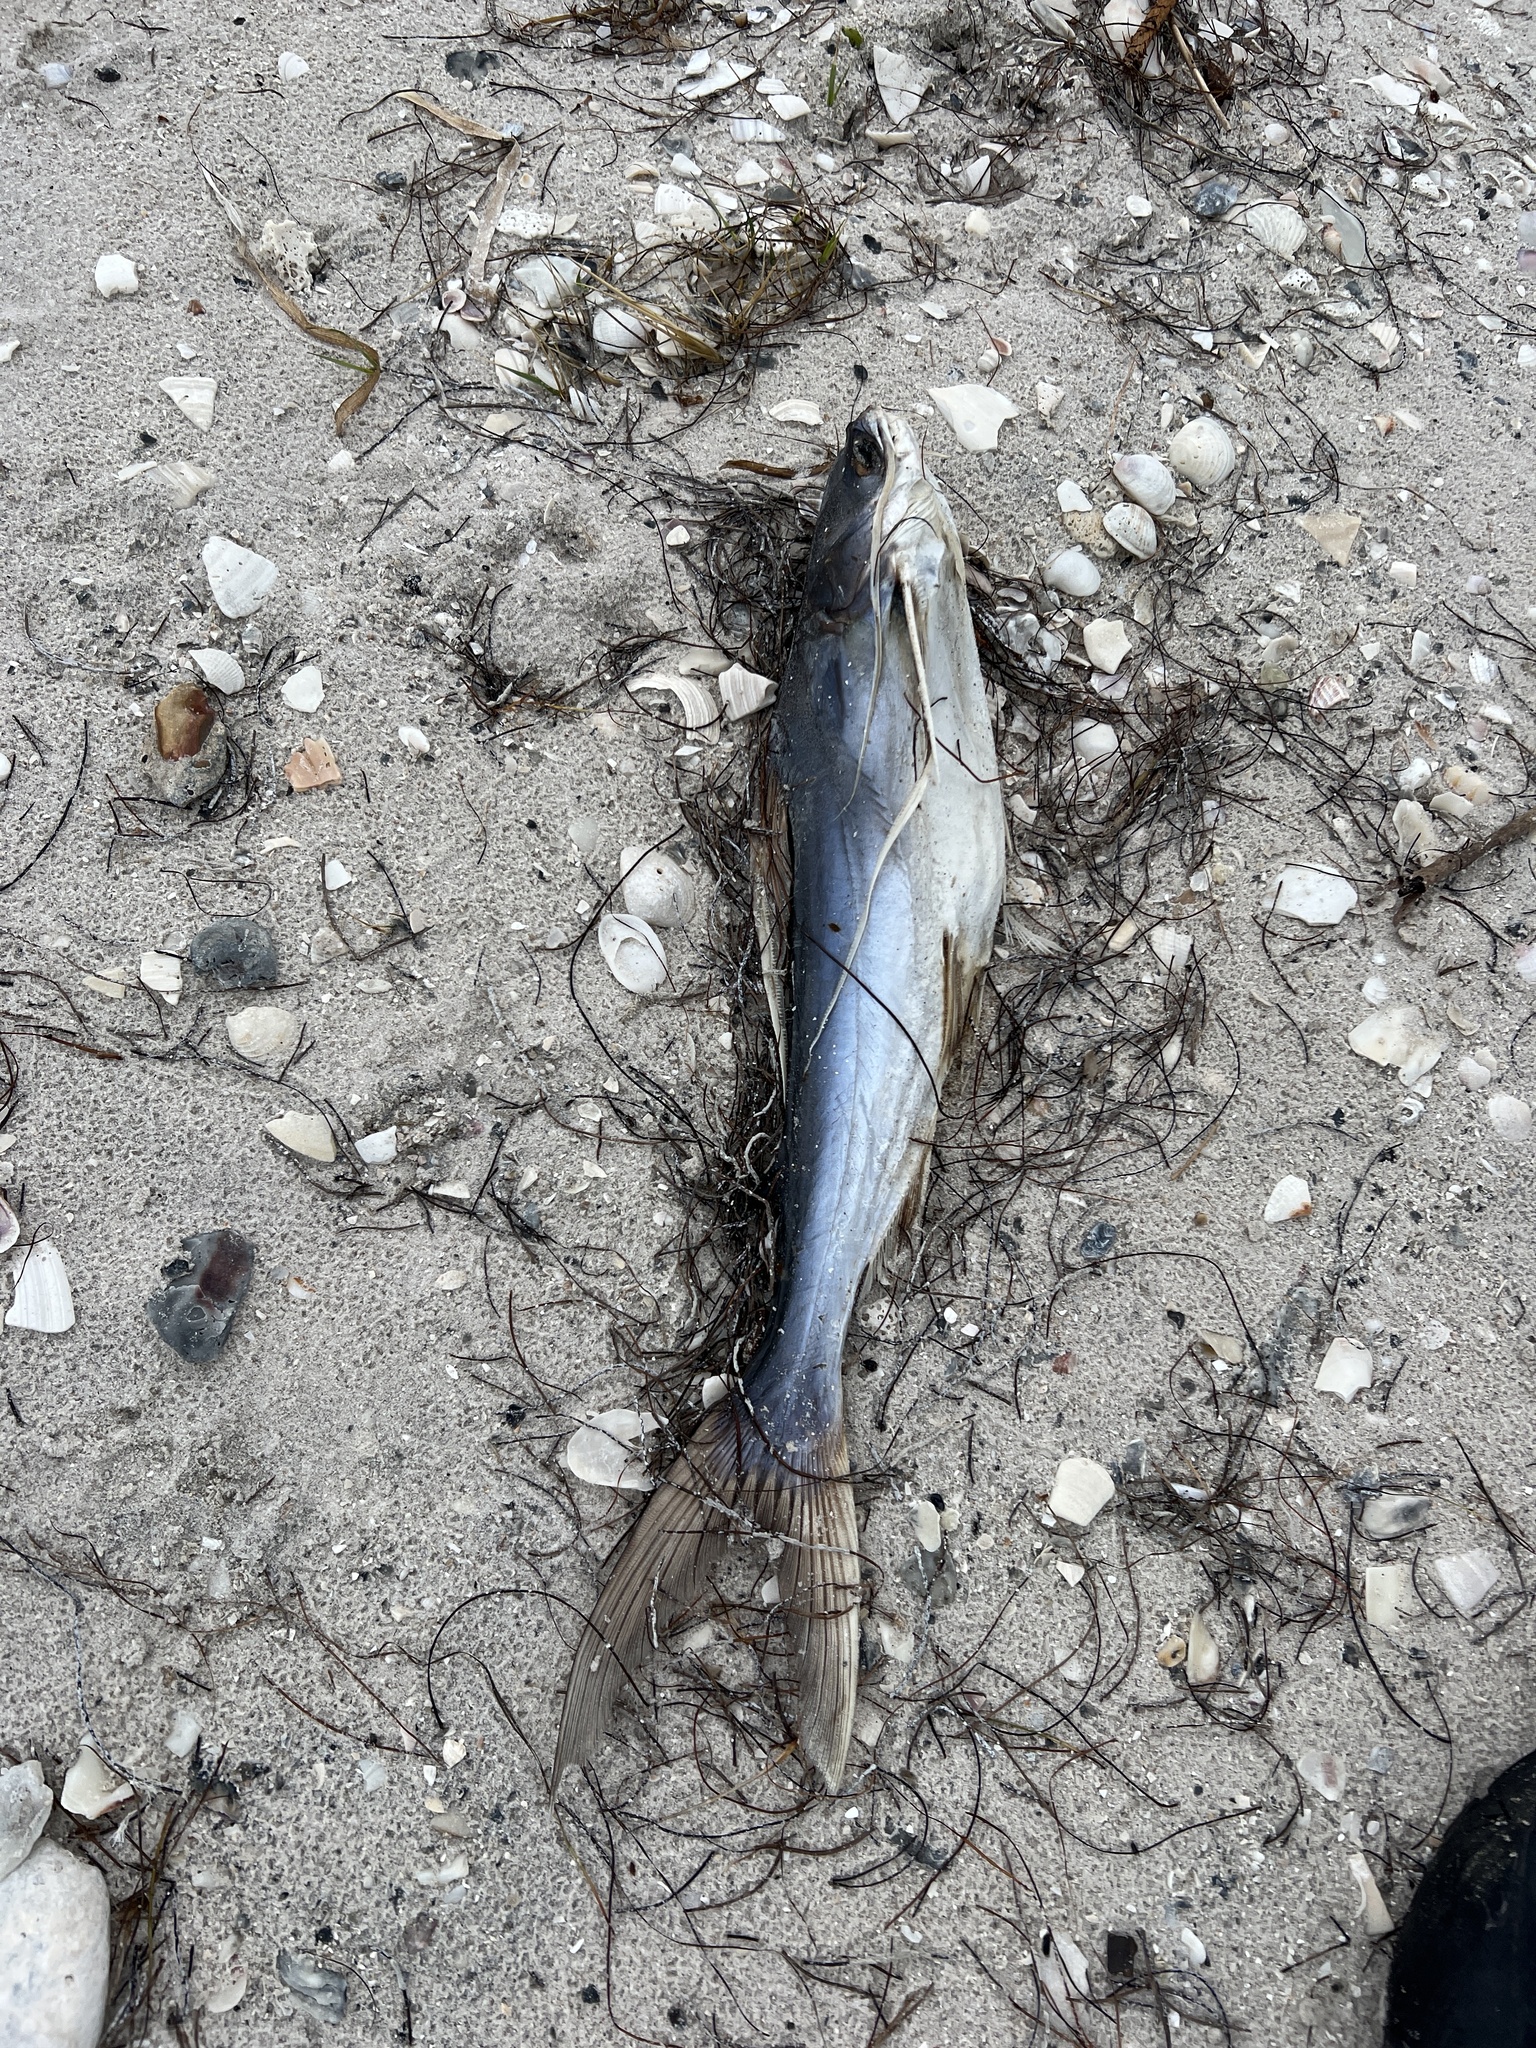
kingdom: Animalia
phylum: Chordata
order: Siluriformes
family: Ariidae
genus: Bagre
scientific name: Bagre marinus
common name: Gafftopsail sea catfish
